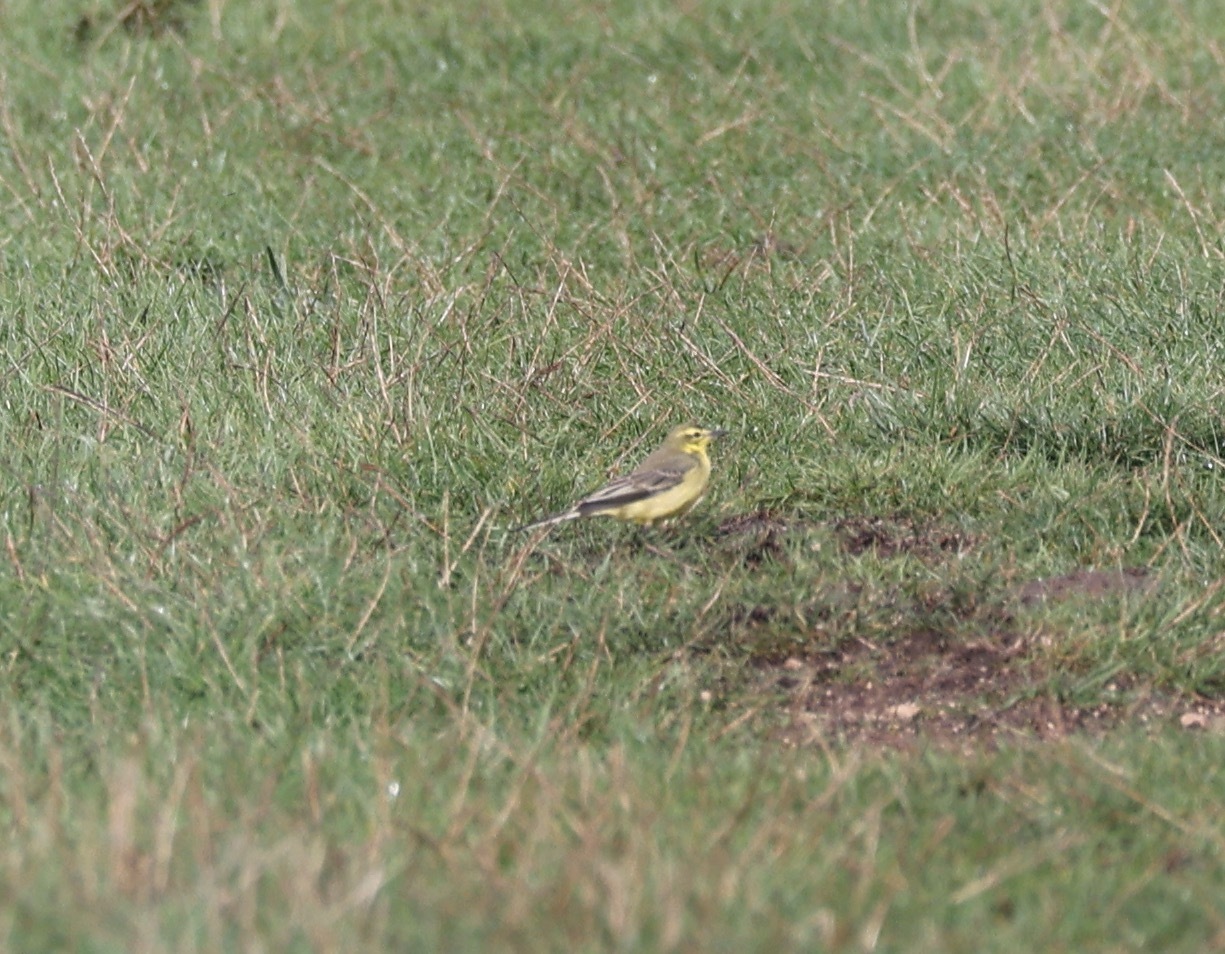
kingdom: Animalia
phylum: Chordata
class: Aves
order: Passeriformes
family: Motacillidae
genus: Motacilla
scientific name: Motacilla flava
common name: Western yellow wagtail
